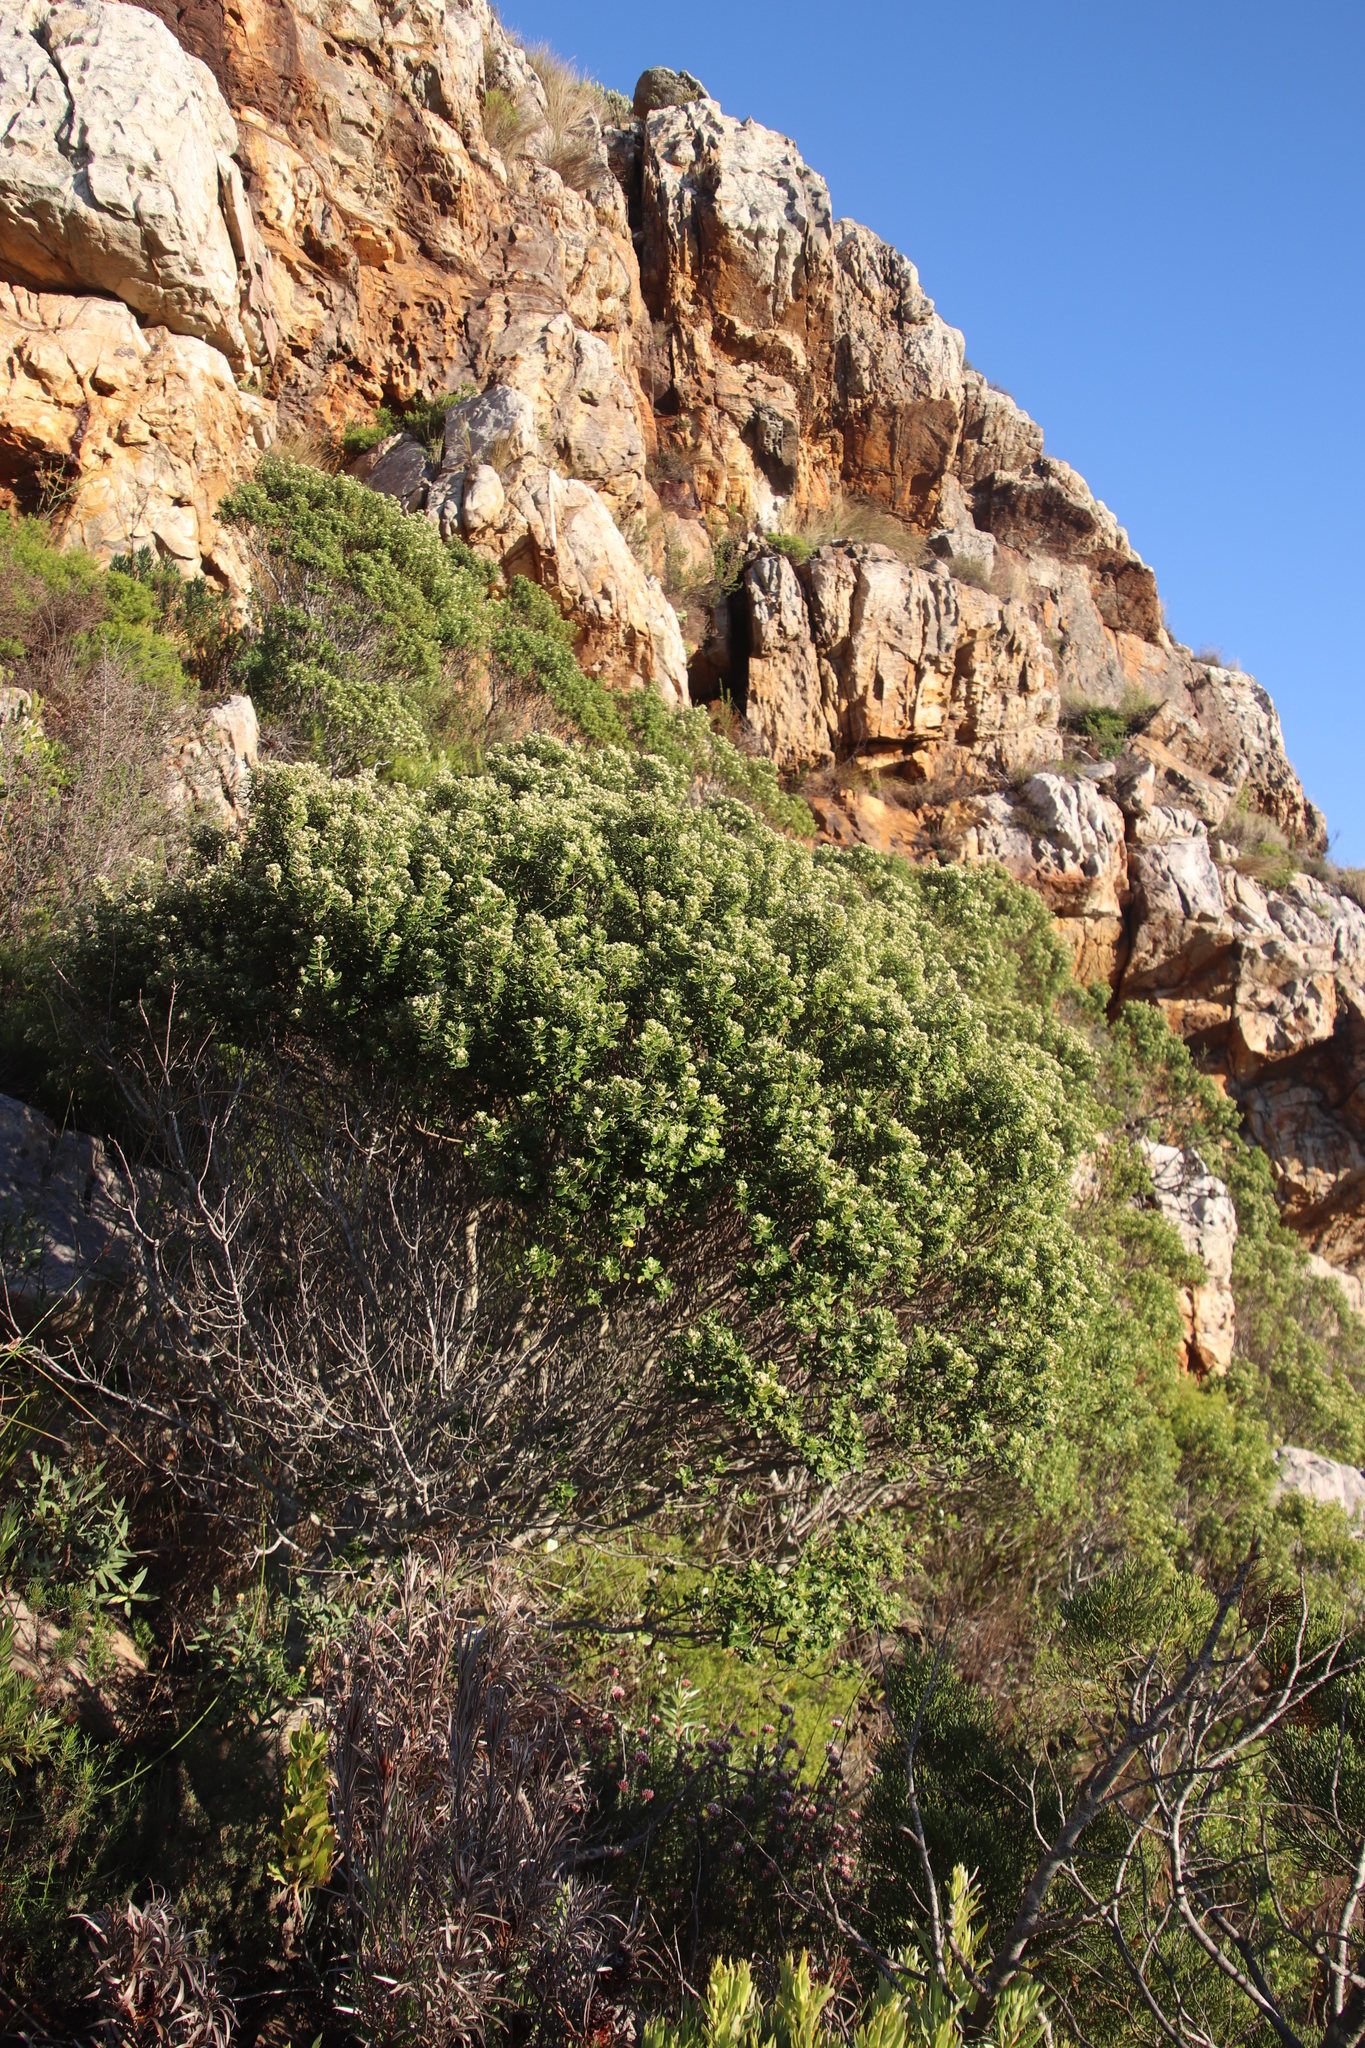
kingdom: Plantae
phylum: Tracheophyta
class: Magnoliopsida
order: Rosales
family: Rhamnaceae
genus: Phylica
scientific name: Phylica buxifolia
